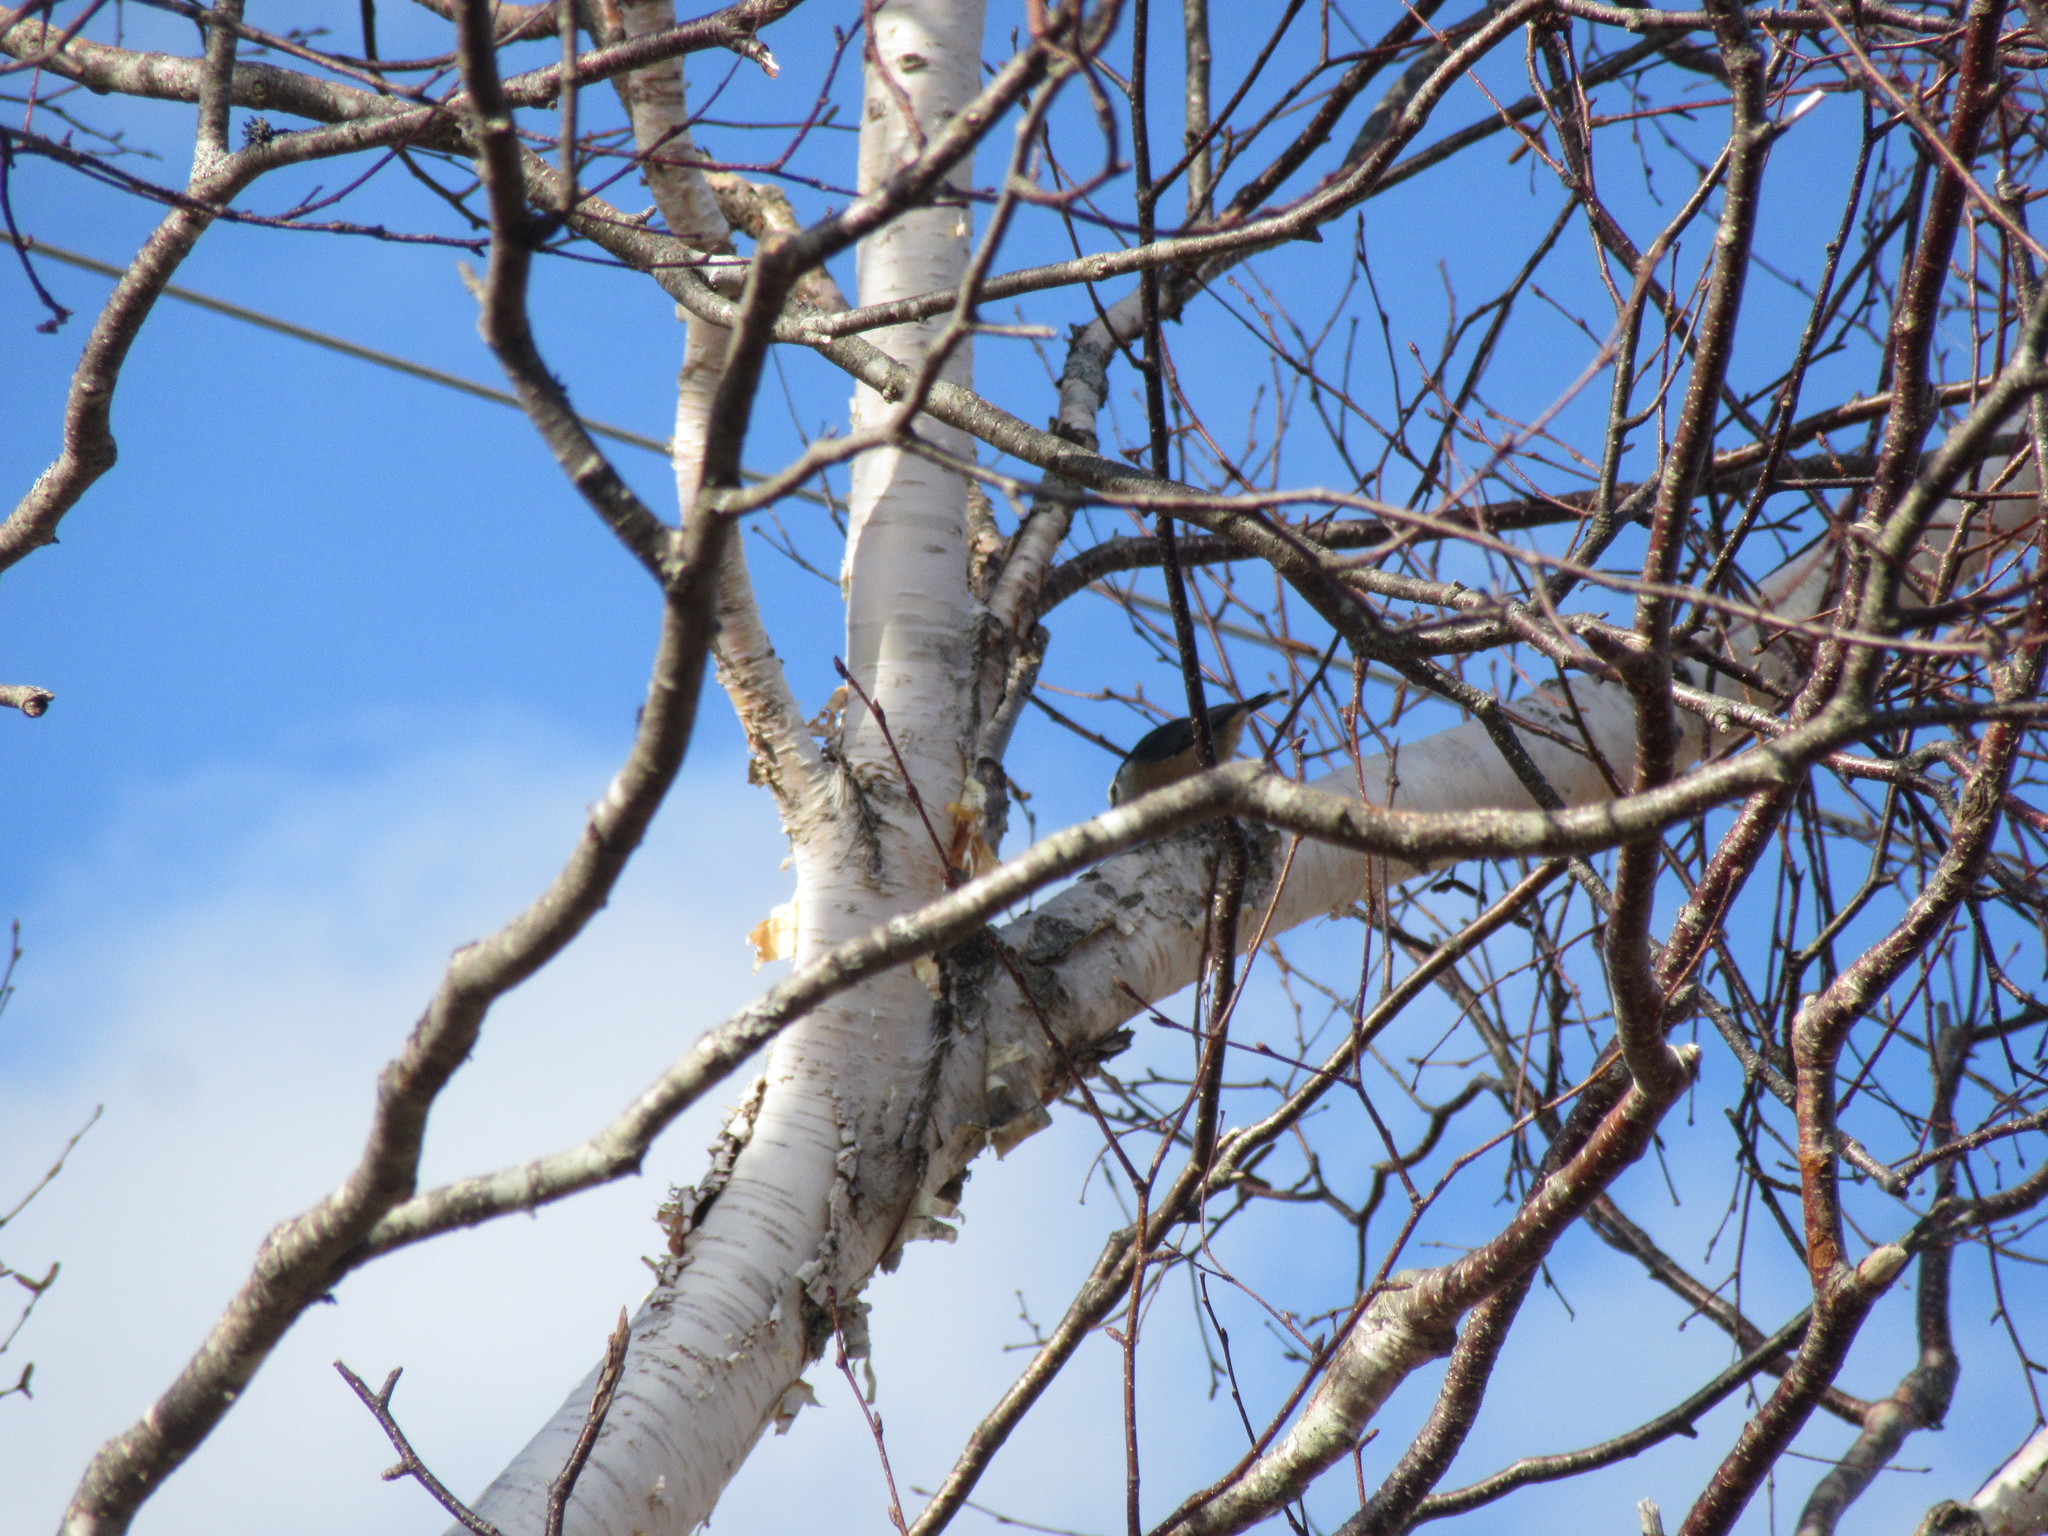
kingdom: Animalia
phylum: Chordata
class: Aves
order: Passeriformes
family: Sittidae
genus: Sitta
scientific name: Sitta canadensis
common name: Red-breasted nuthatch
